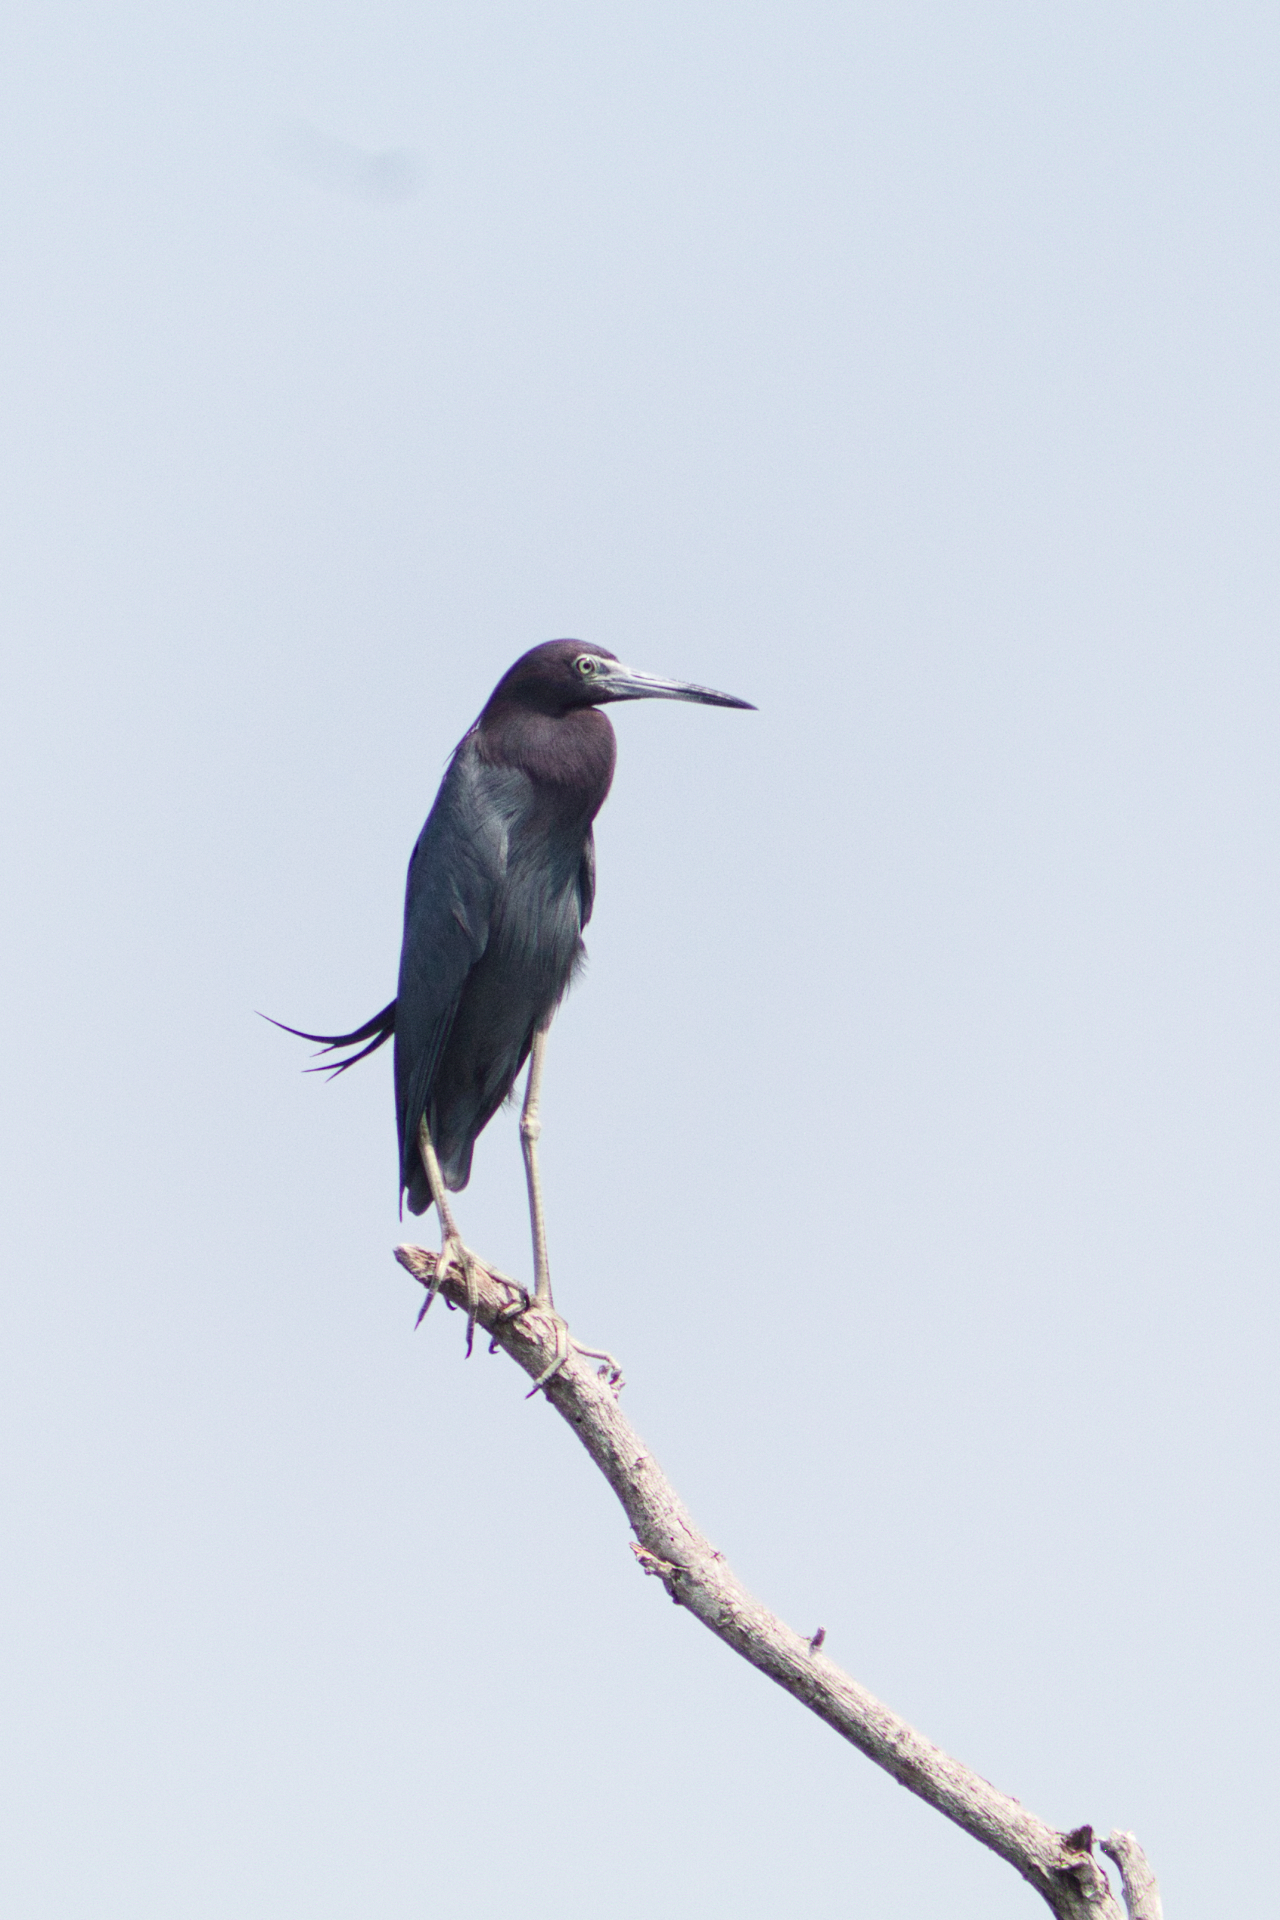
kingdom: Animalia
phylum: Chordata
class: Aves
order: Pelecaniformes
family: Ardeidae
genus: Egretta
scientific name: Egretta caerulea
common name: Little blue heron
